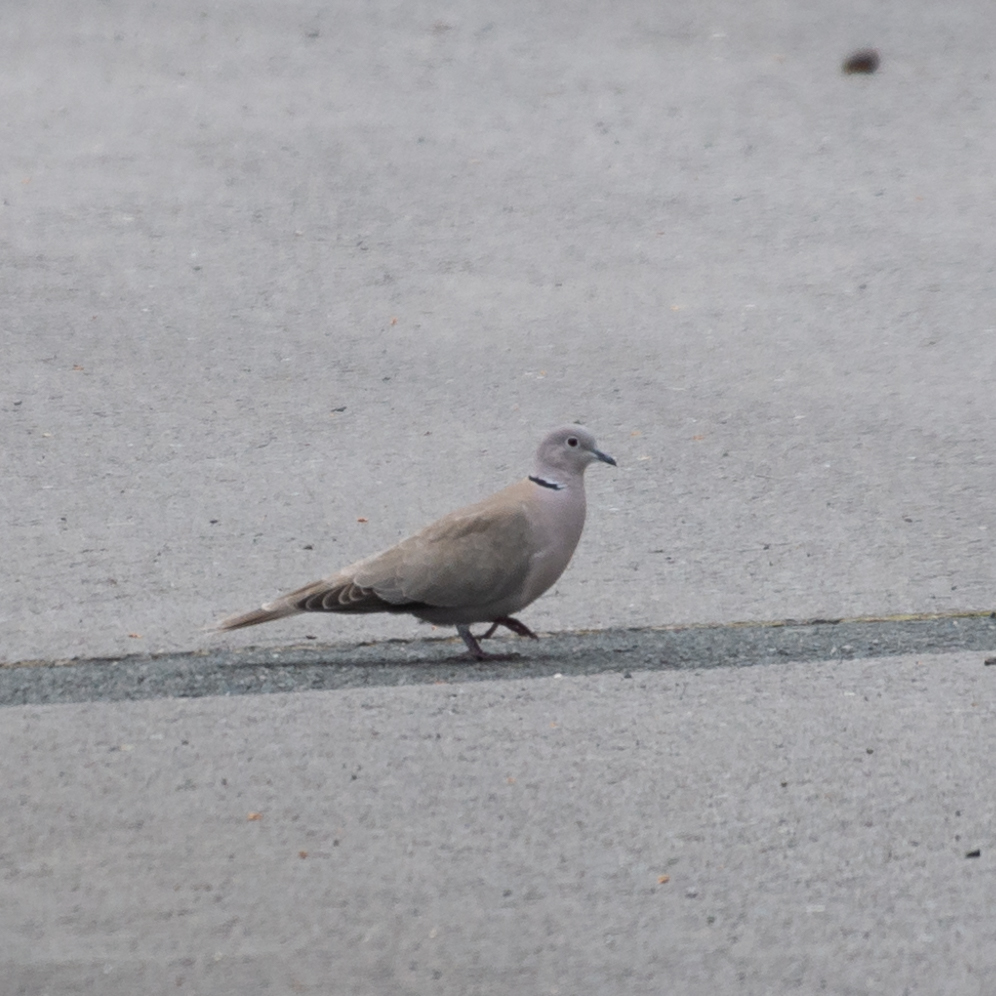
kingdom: Animalia
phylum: Chordata
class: Aves
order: Columbiformes
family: Columbidae
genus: Streptopelia
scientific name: Streptopelia decaocto
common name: Eurasian collared dove
